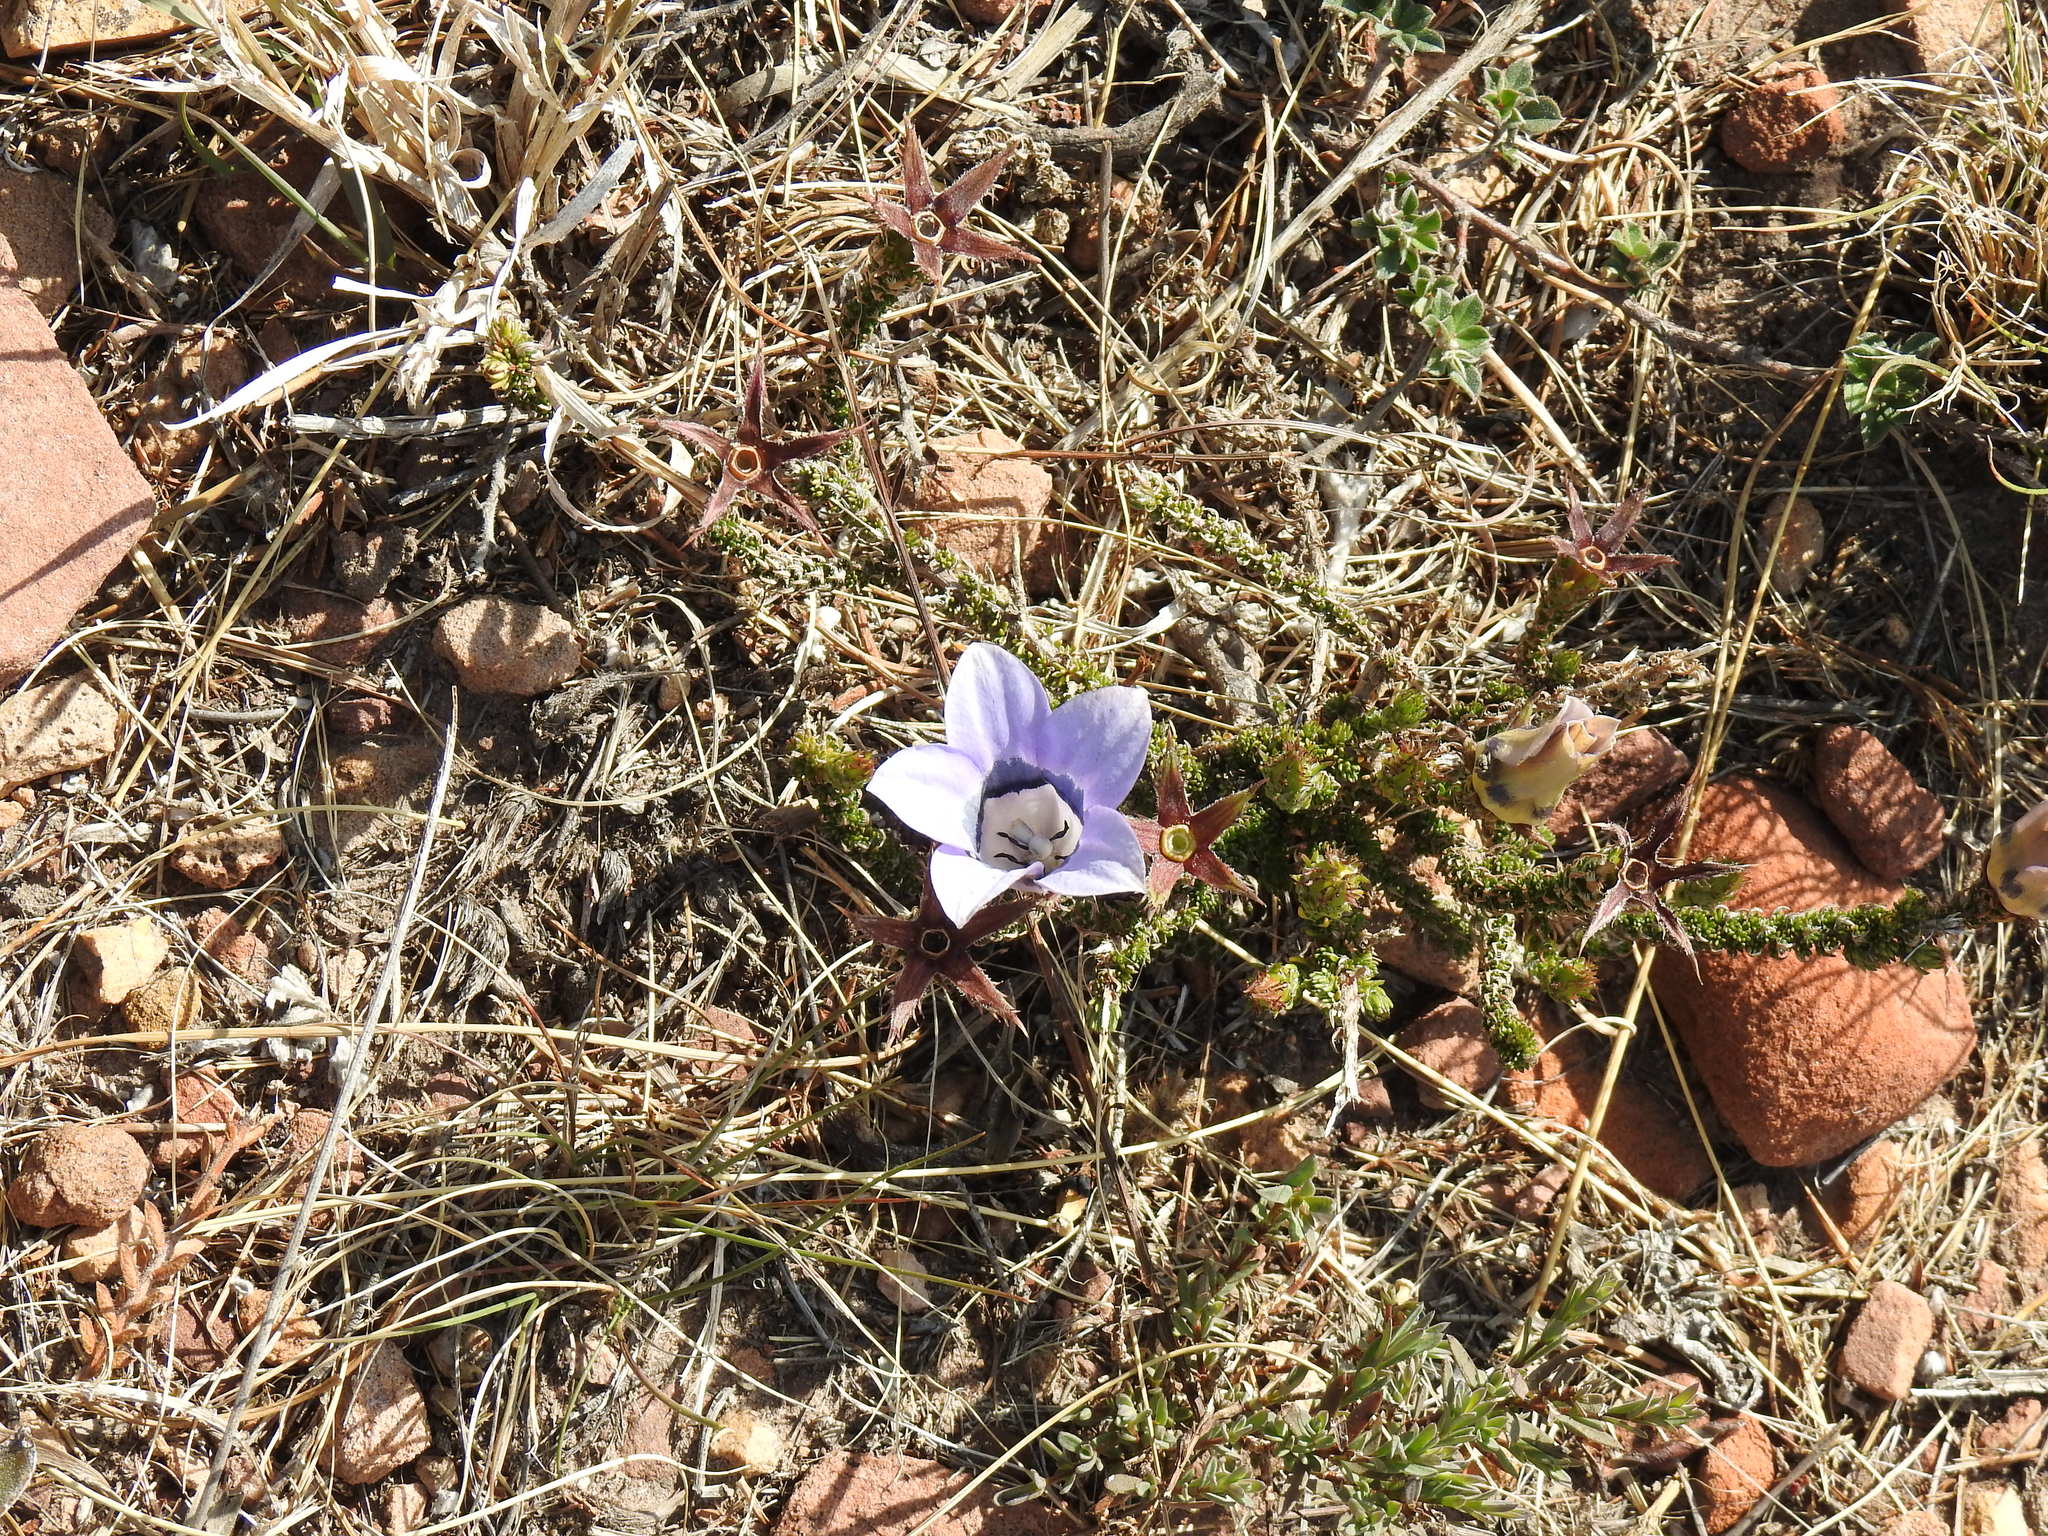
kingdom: Plantae
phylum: Tracheophyta
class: Magnoliopsida
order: Asterales
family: Campanulaceae
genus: Roella
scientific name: Roella ciliata
